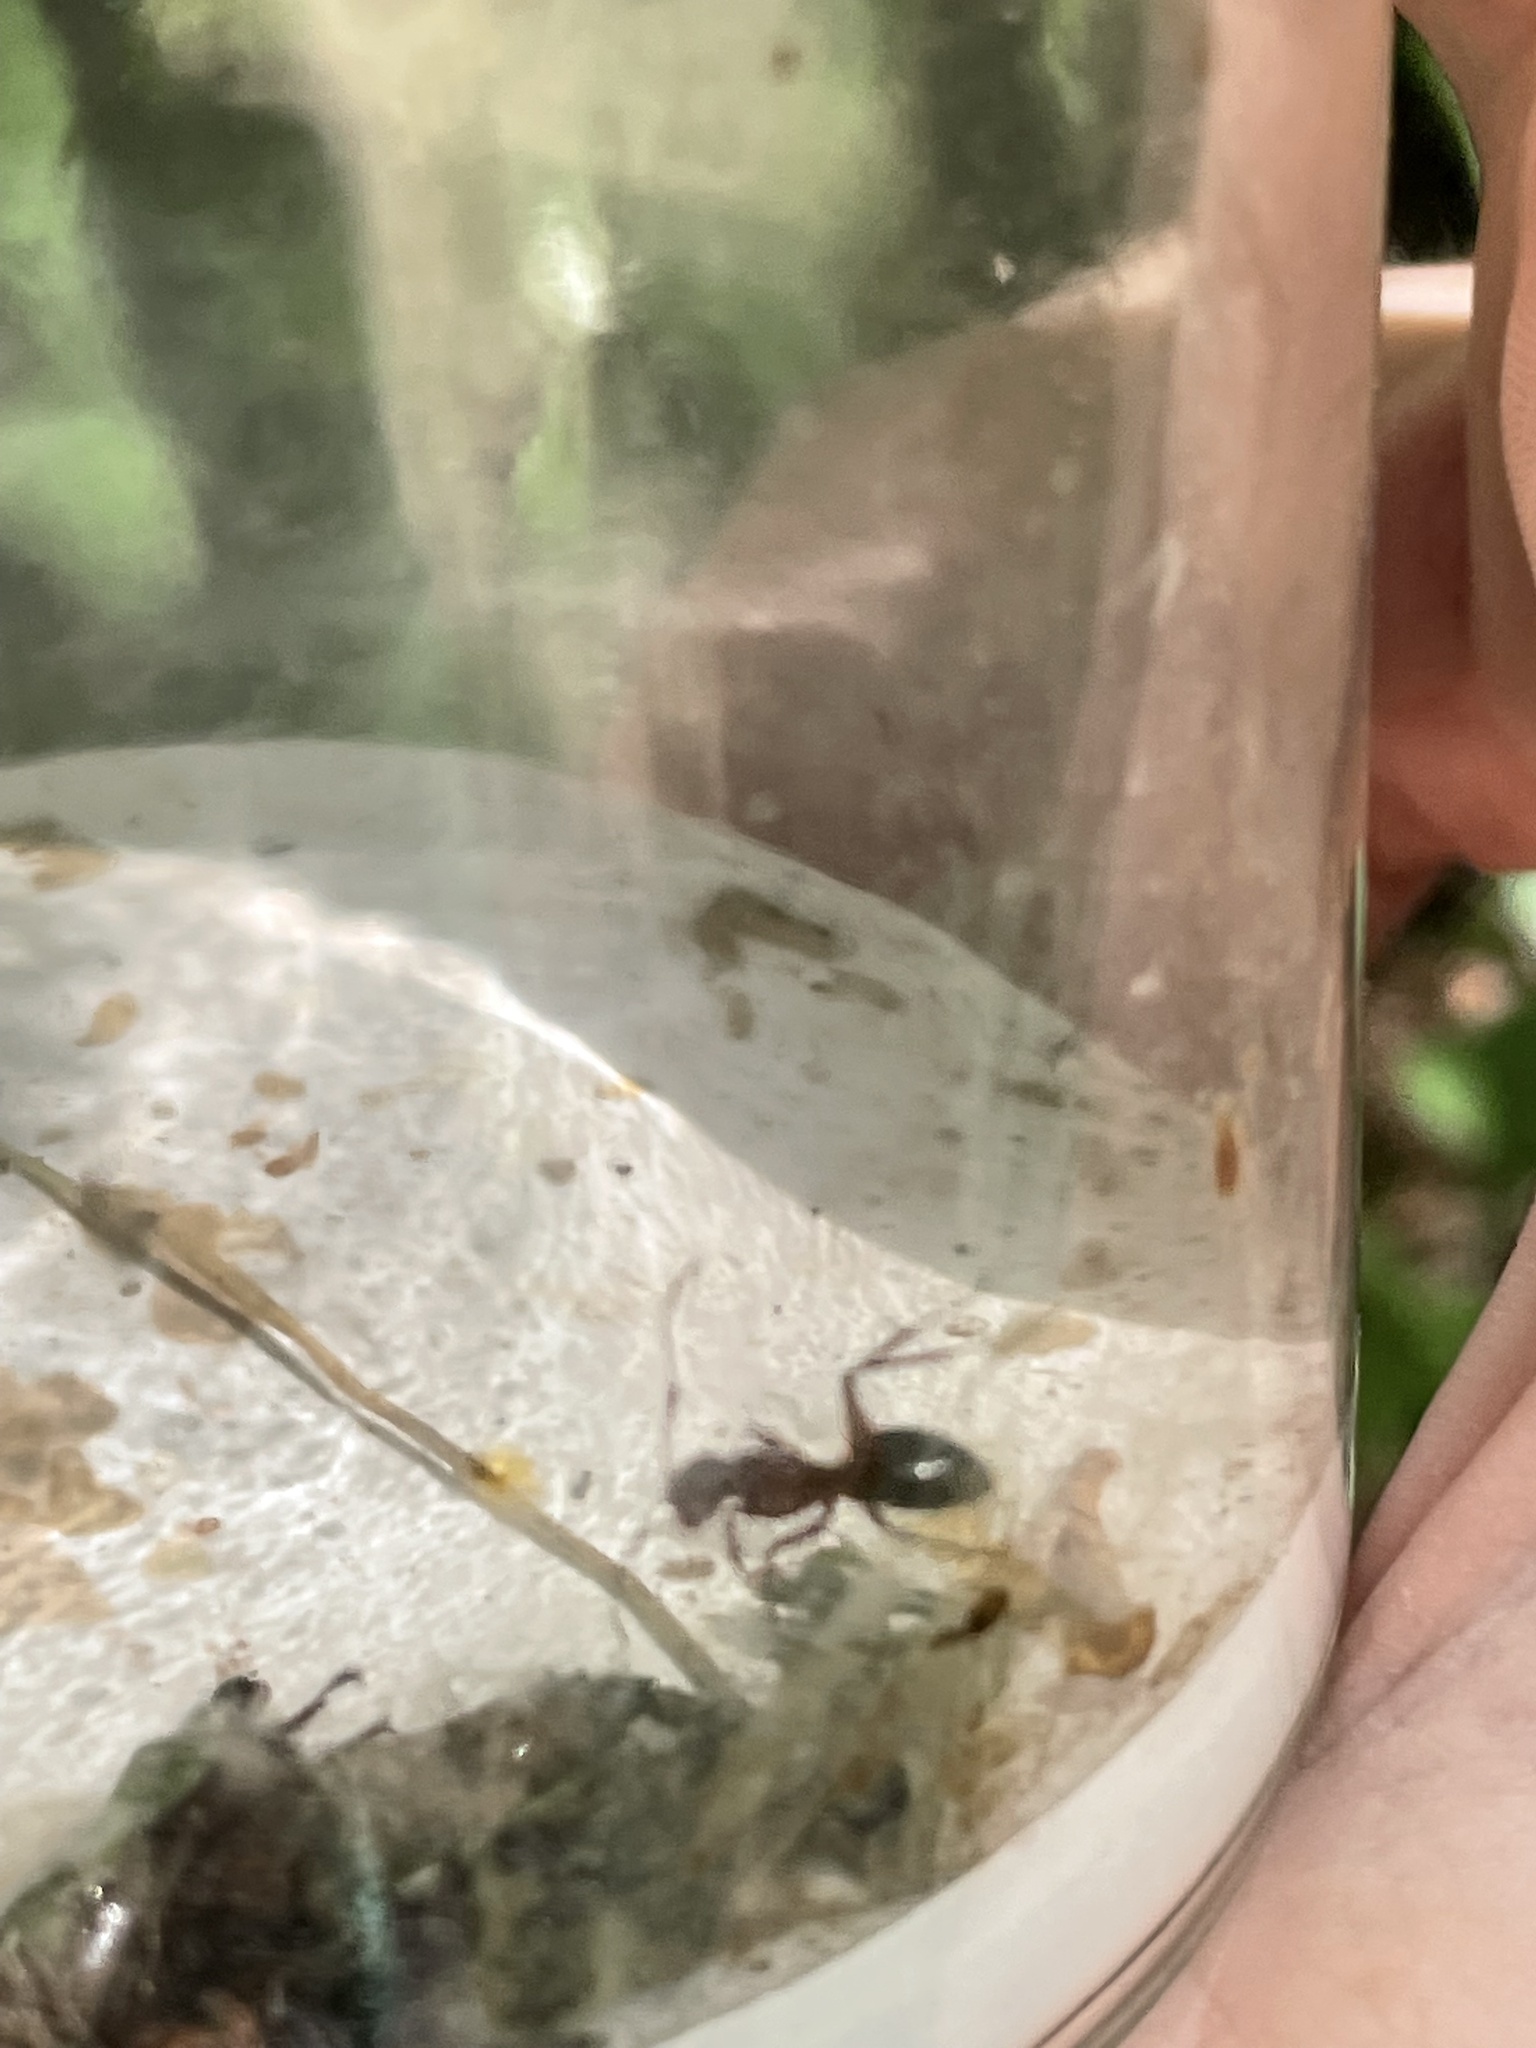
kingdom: Animalia
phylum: Arthropoda
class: Insecta
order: Hymenoptera
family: Formicidae
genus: Camponotus
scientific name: Camponotus chromaiodes
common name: Red carpenter ant
